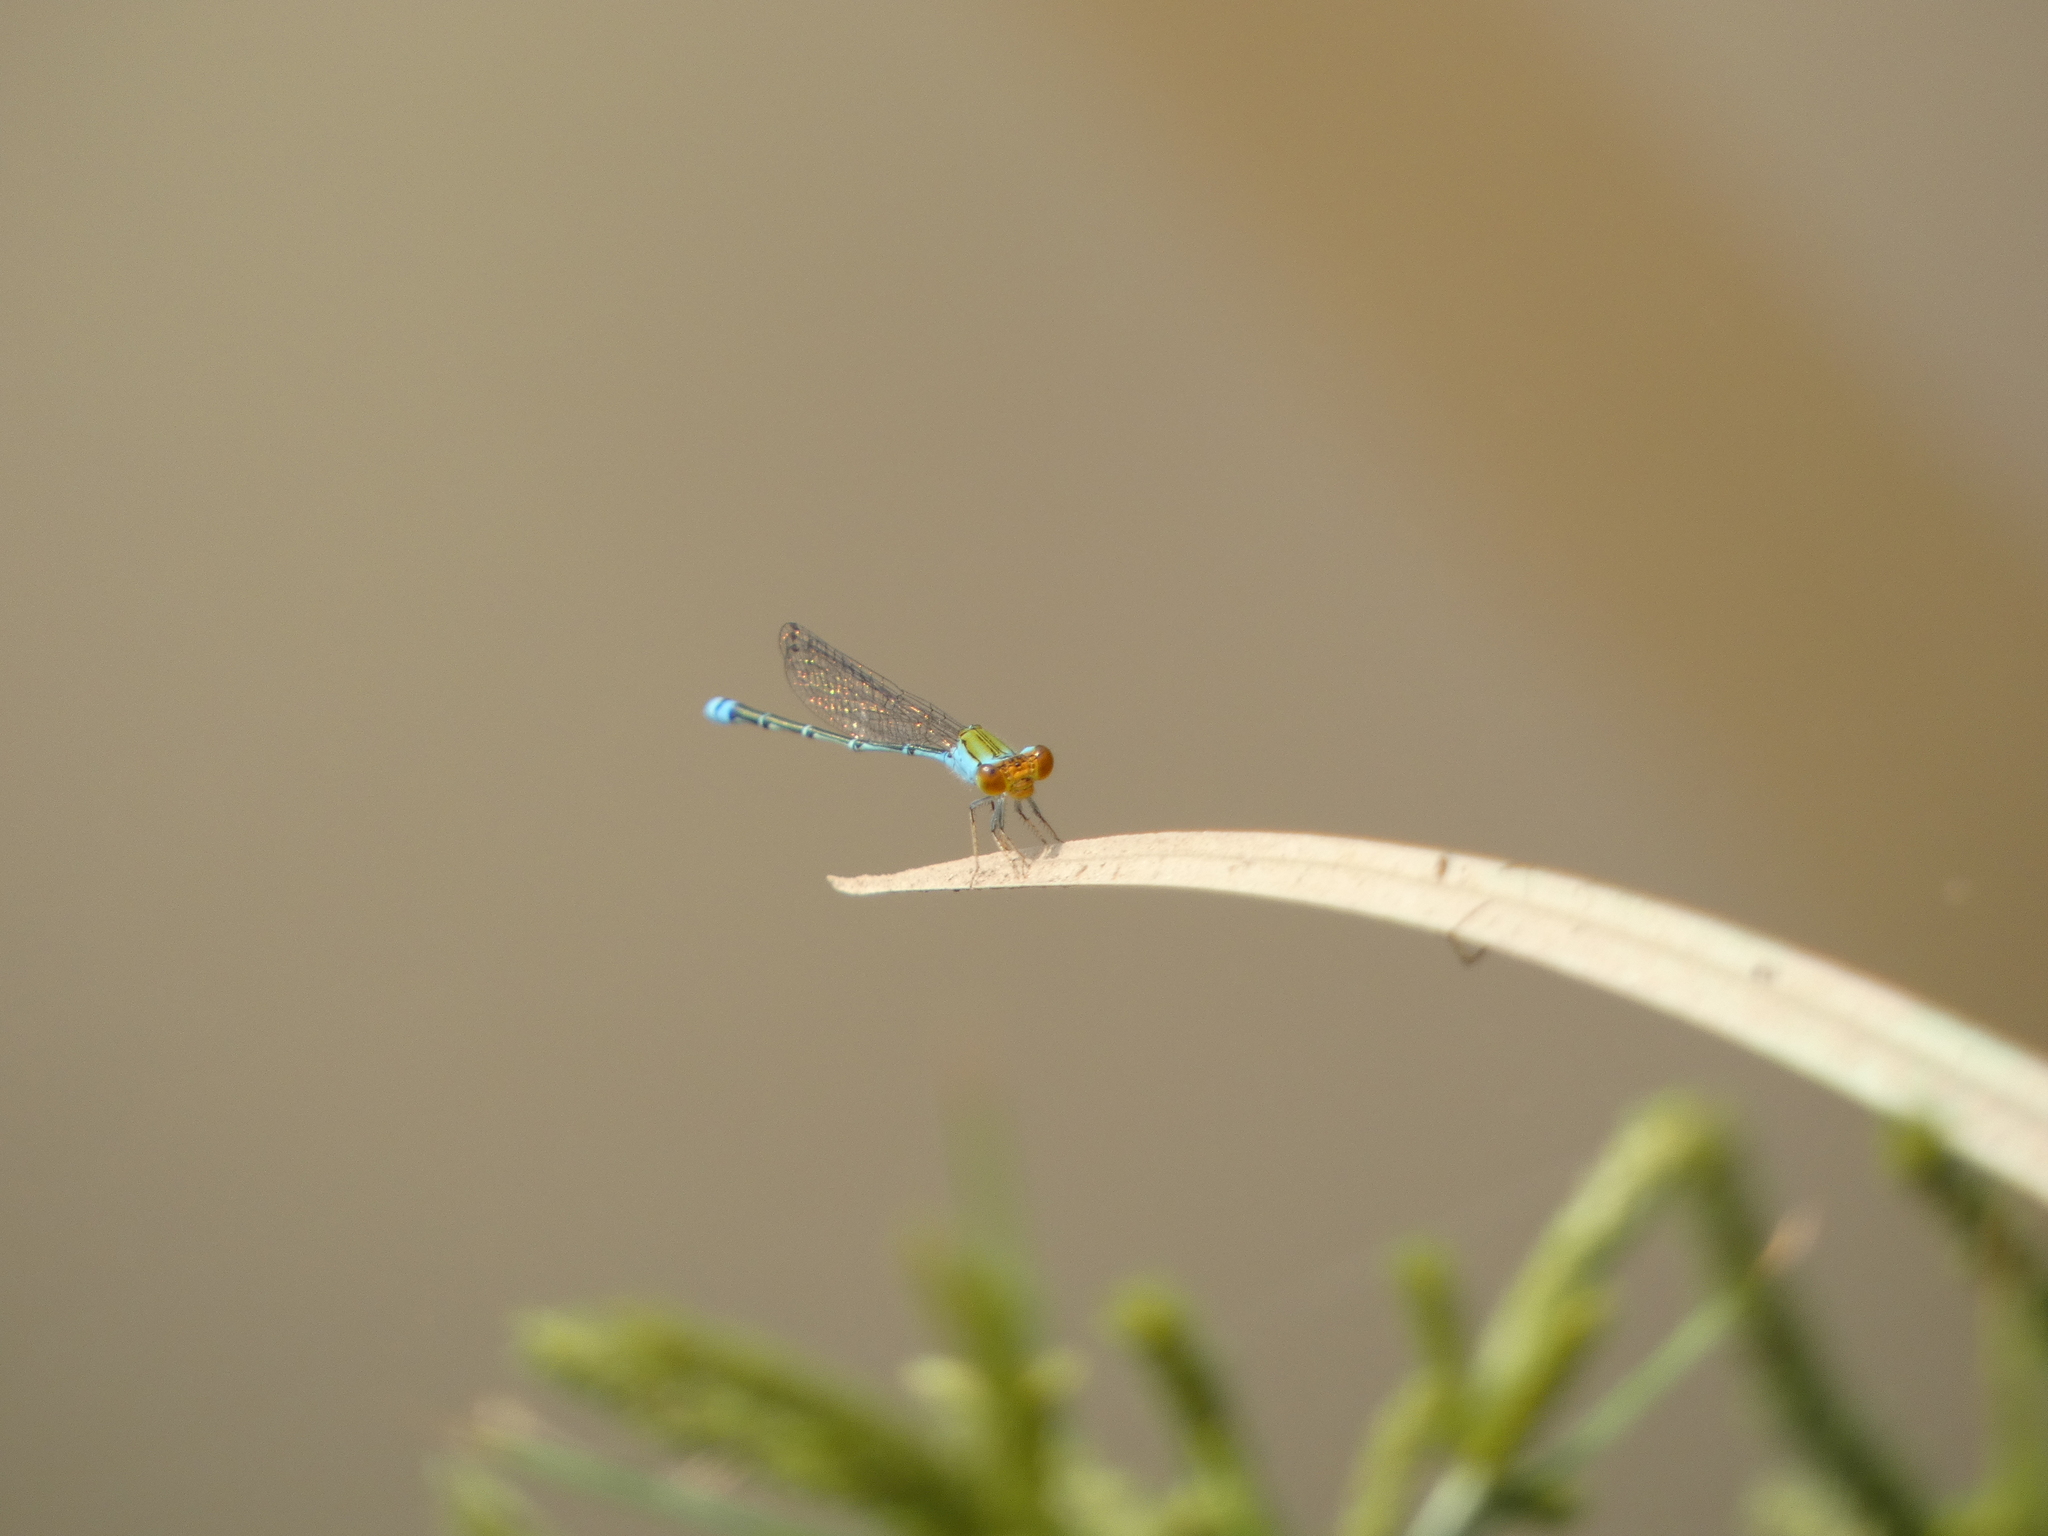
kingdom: Animalia
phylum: Arthropoda
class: Insecta
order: Odonata
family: Coenagrionidae
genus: Pseudagrion
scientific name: Pseudagrion rubriceps
